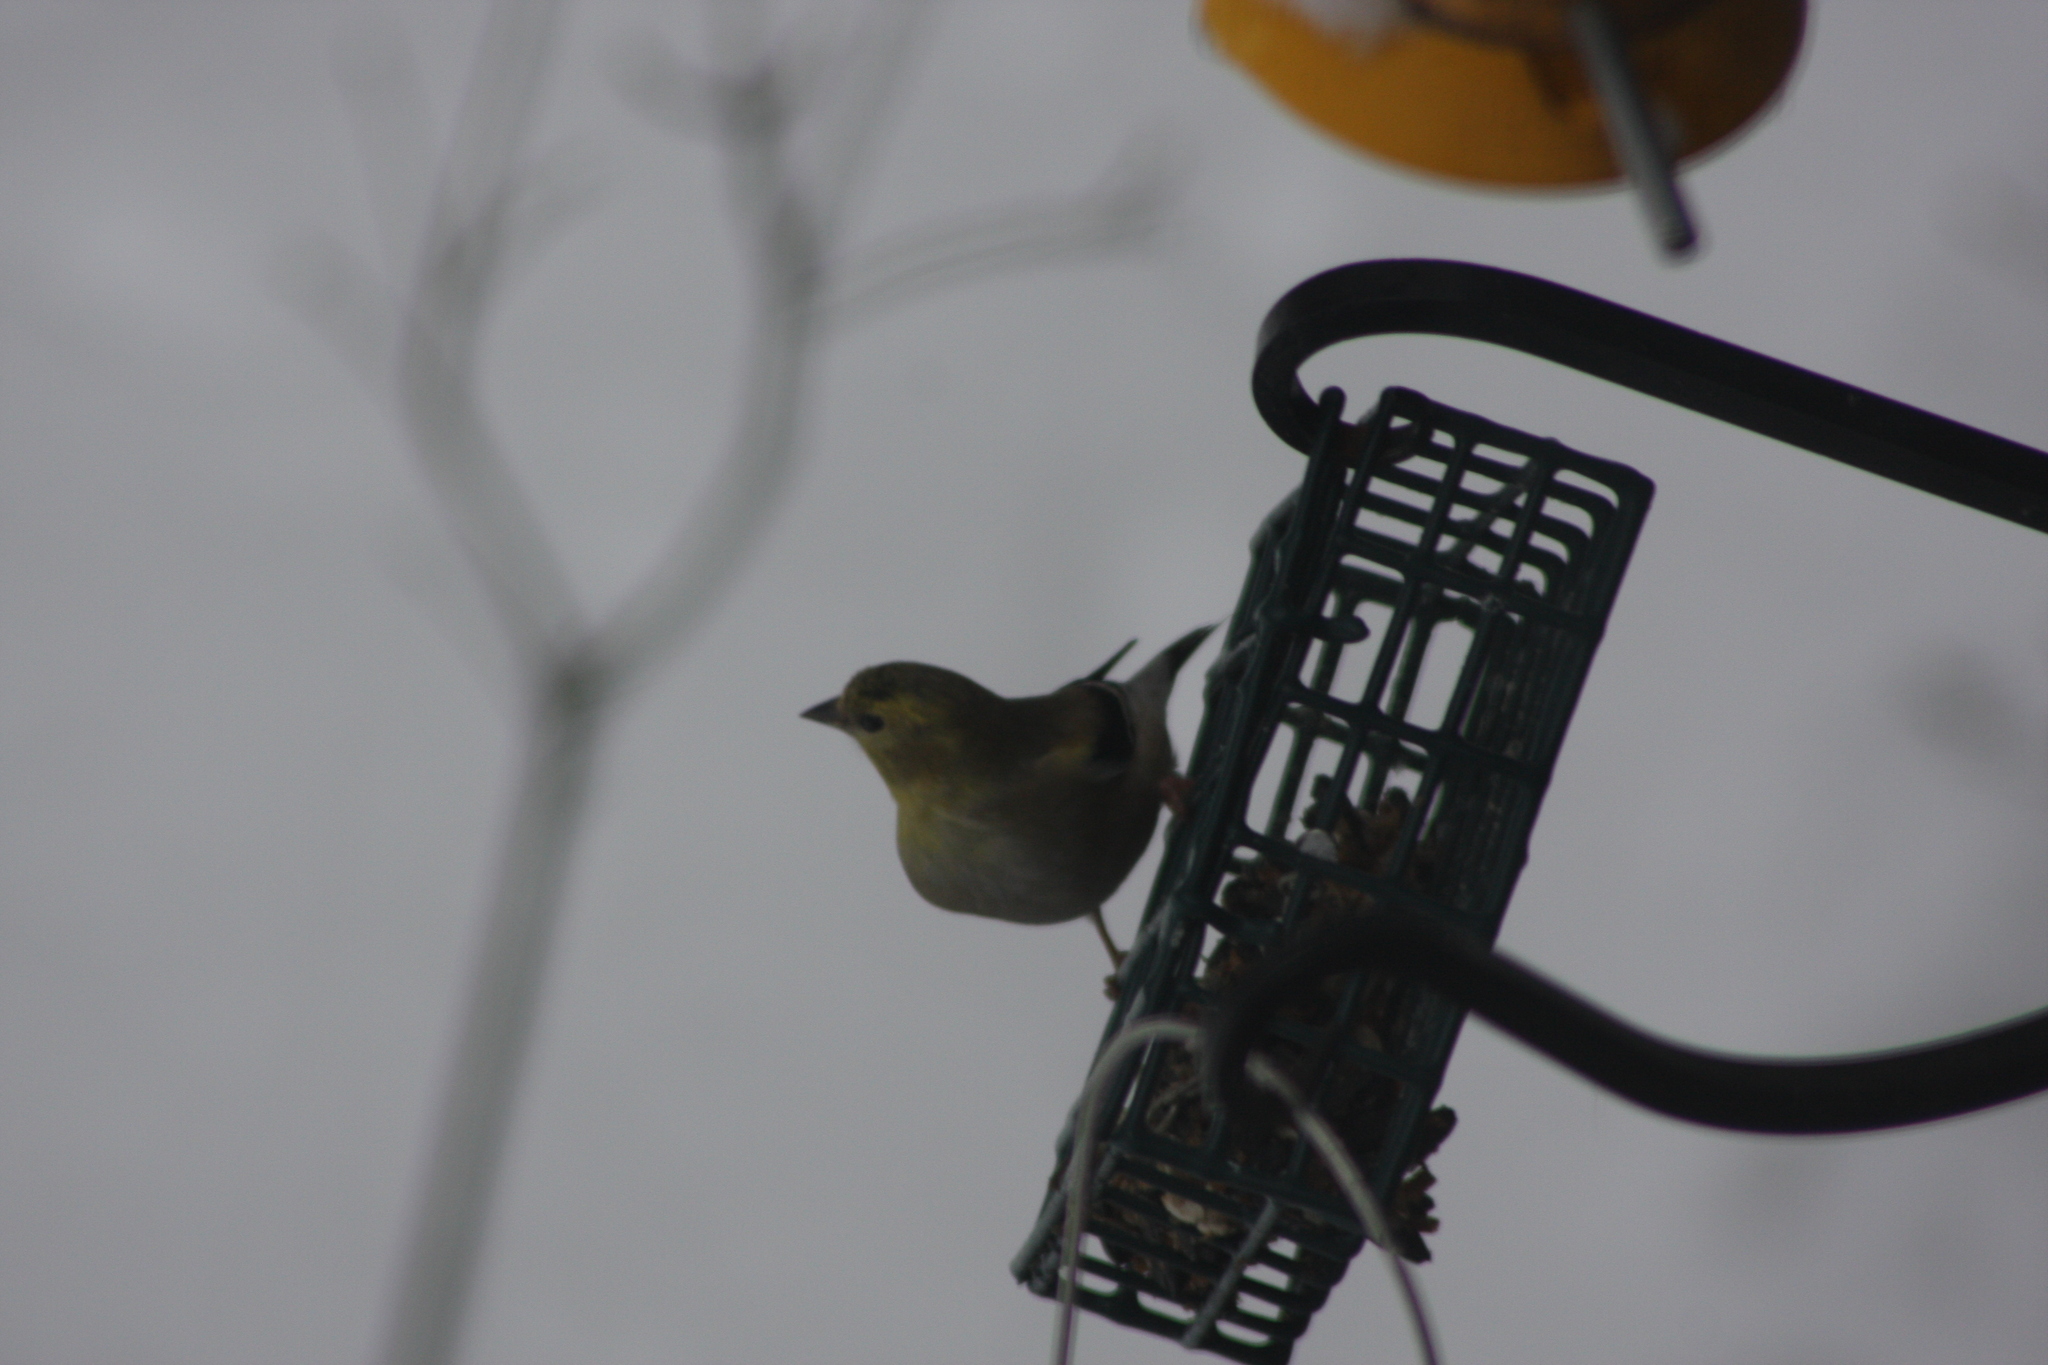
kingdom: Animalia
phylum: Chordata
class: Aves
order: Passeriformes
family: Fringillidae
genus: Spinus
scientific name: Spinus tristis
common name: American goldfinch
